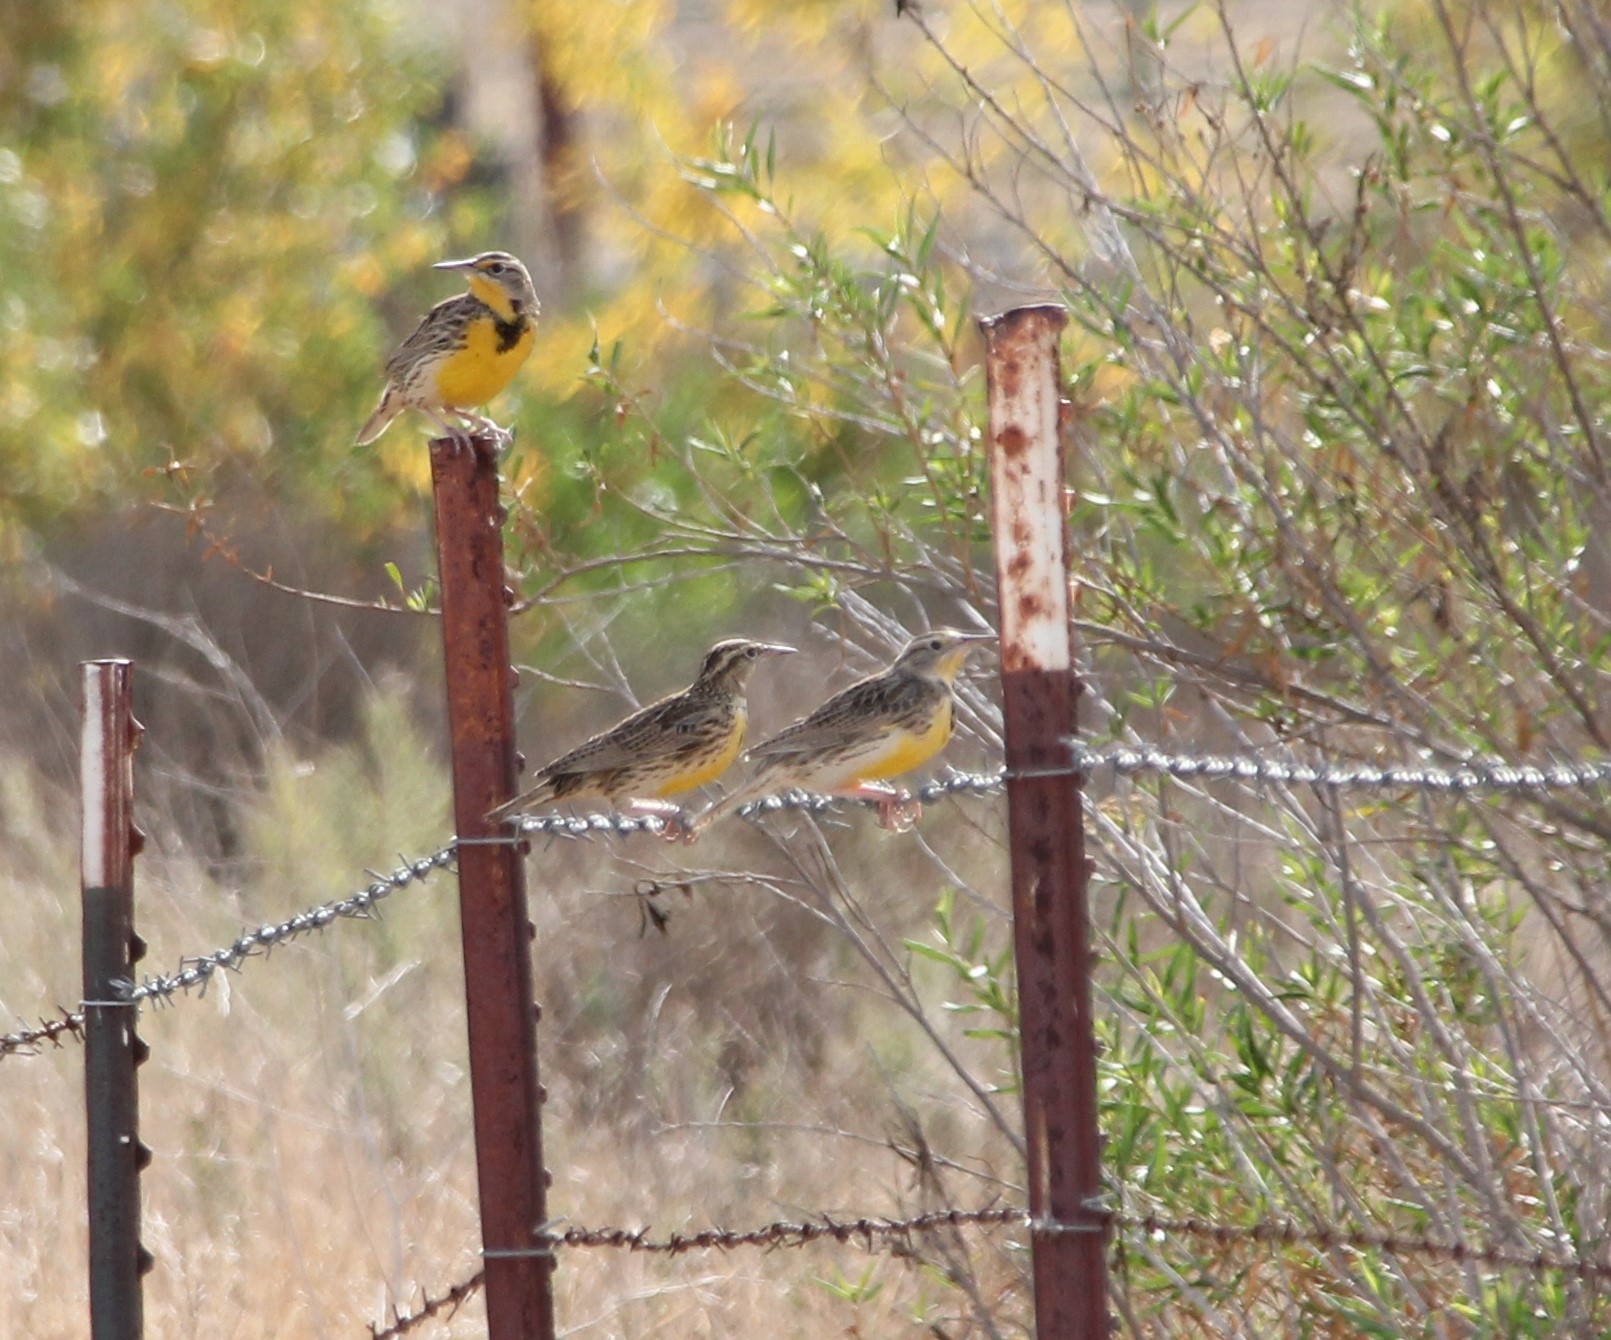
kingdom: Animalia
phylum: Chordata
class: Aves
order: Passeriformes
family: Icteridae
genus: Sturnella
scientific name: Sturnella neglecta
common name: Western meadowlark
